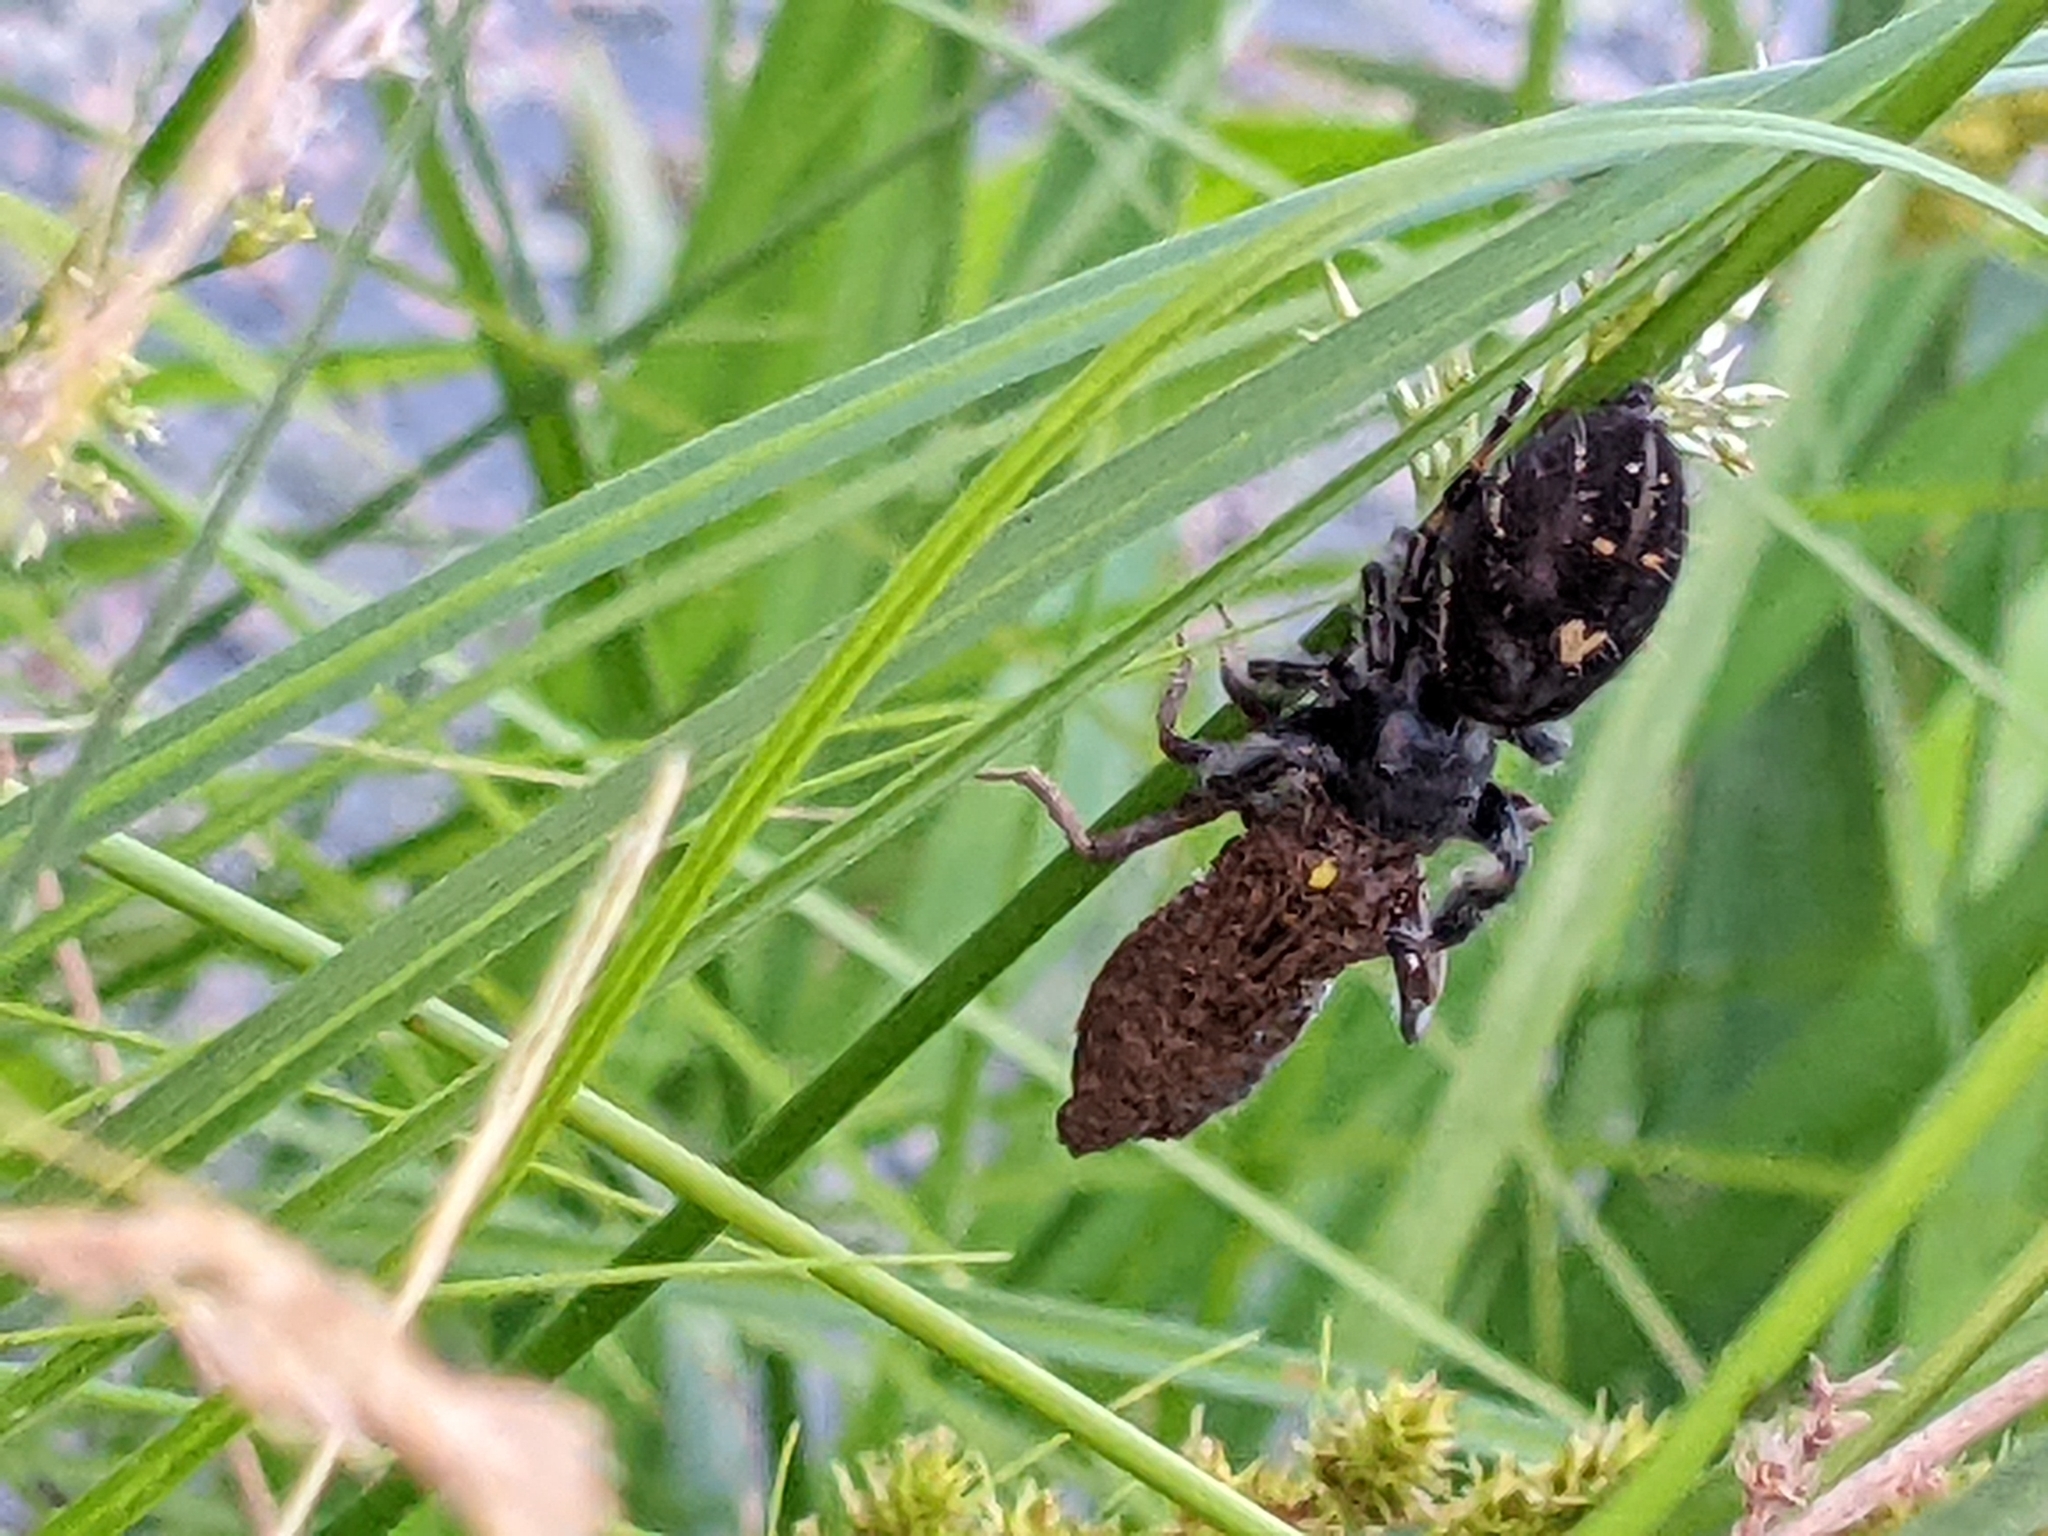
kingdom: Animalia
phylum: Arthropoda
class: Arachnida
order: Araneae
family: Salticidae
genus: Phidippus
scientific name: Phidippus audax
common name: Bold jumper
